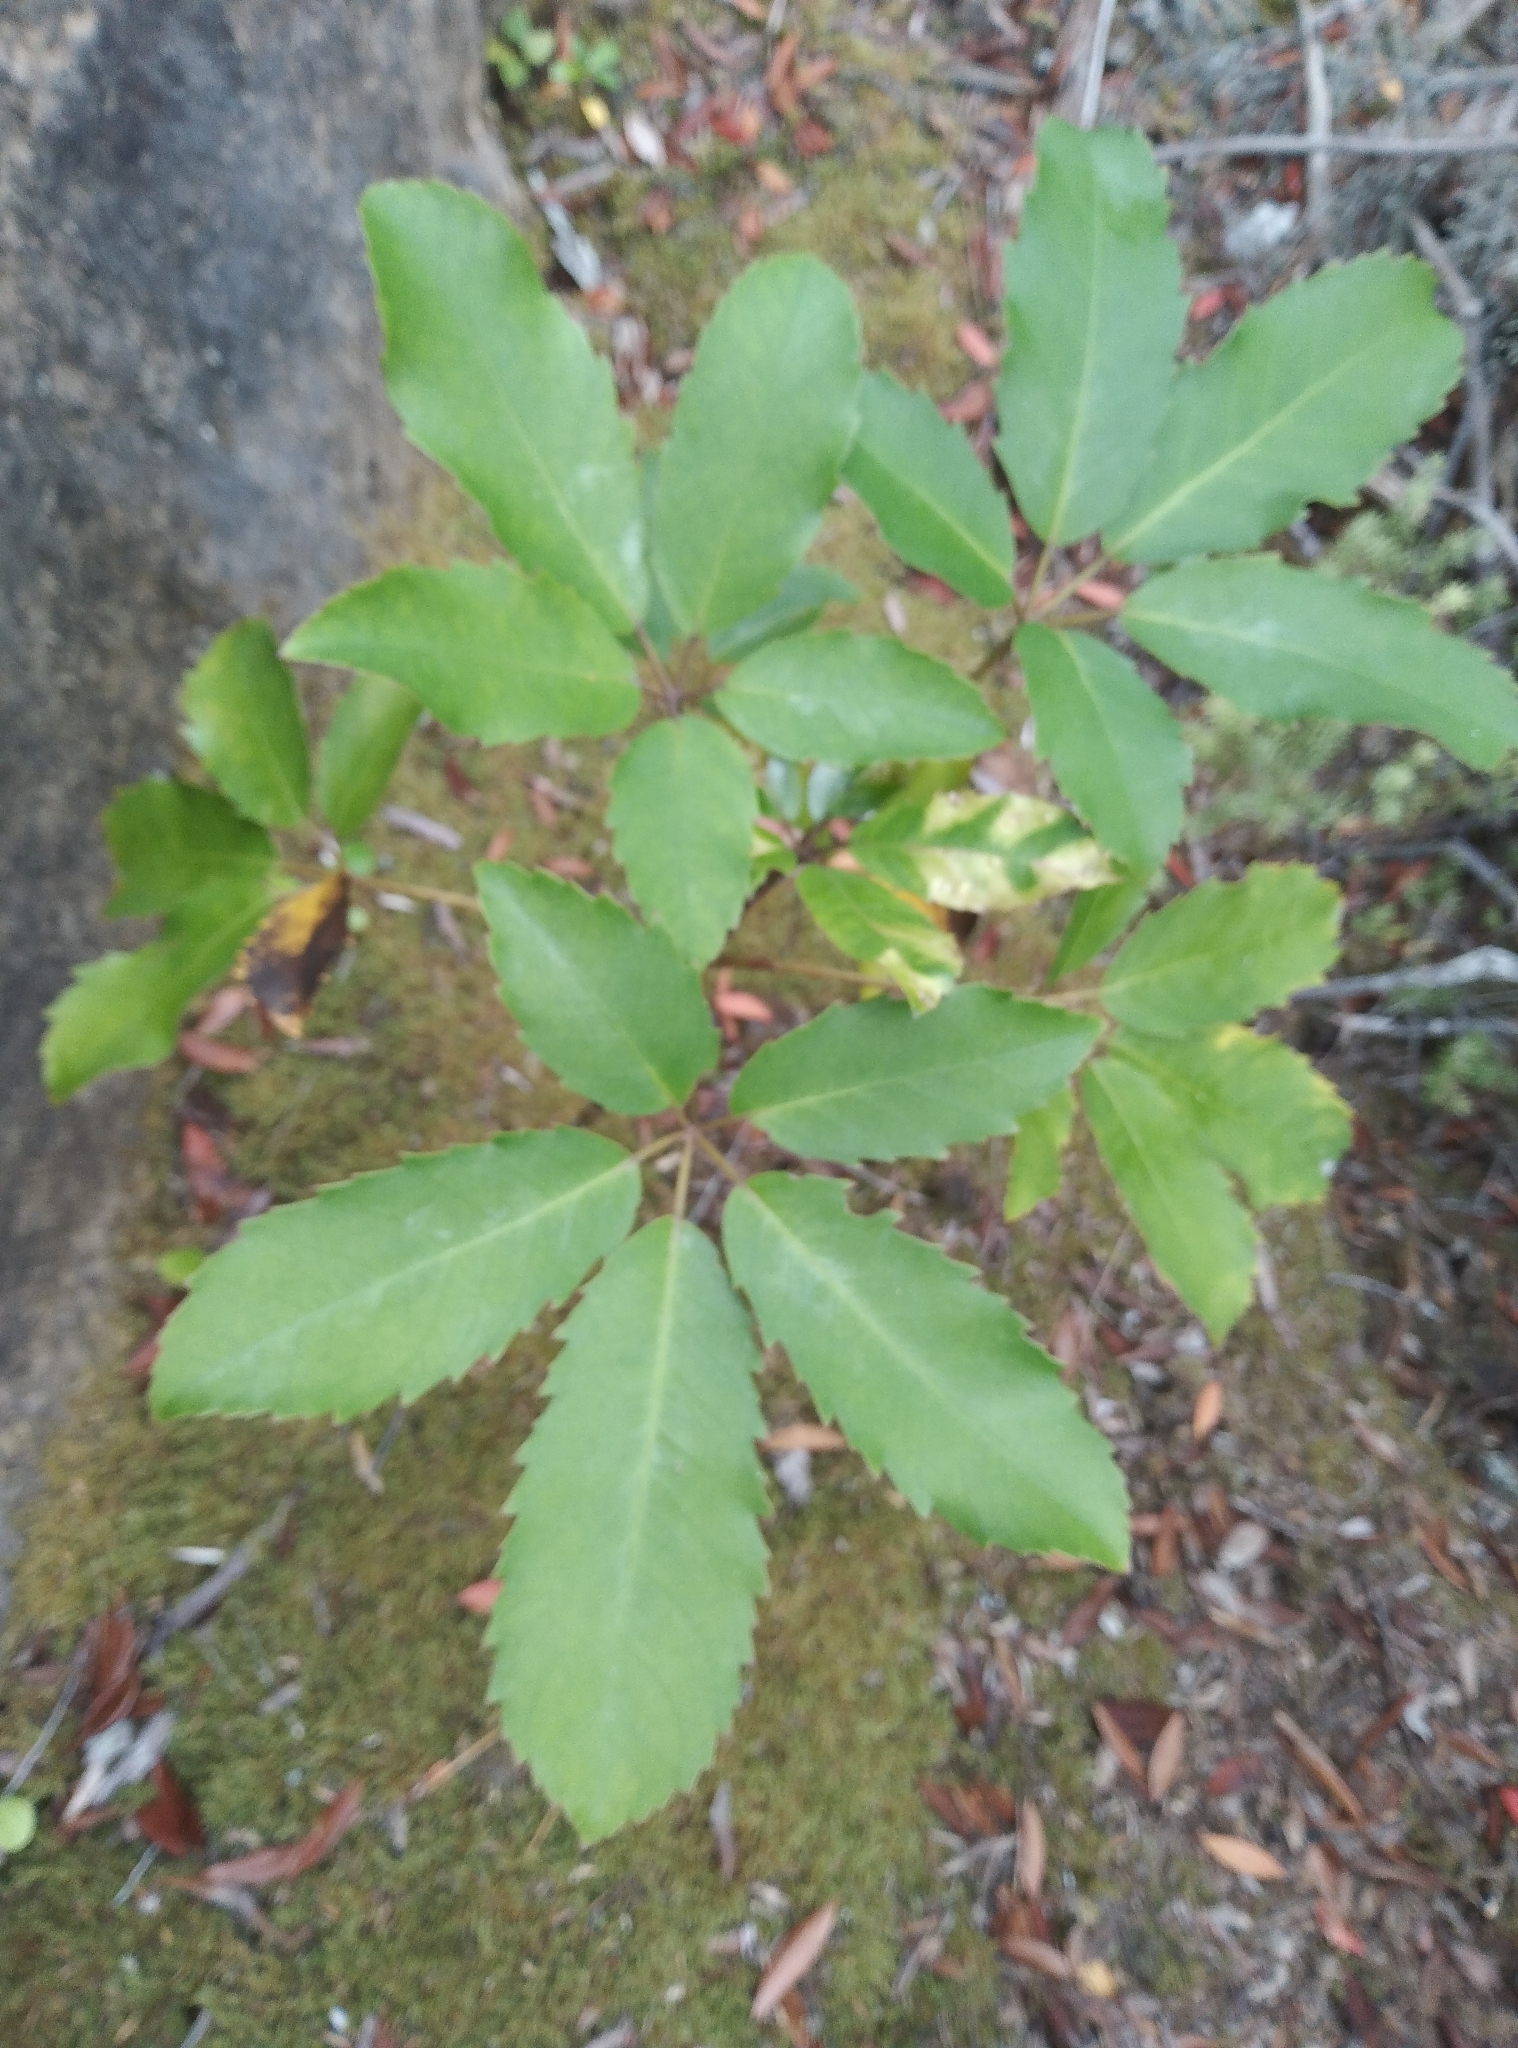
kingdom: Plantae
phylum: Tracheophyta
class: Magnoliopsida
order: Apiales
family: Araliaceae
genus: Neopanax
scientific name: Neopanax arboreus
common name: Five-fingers
